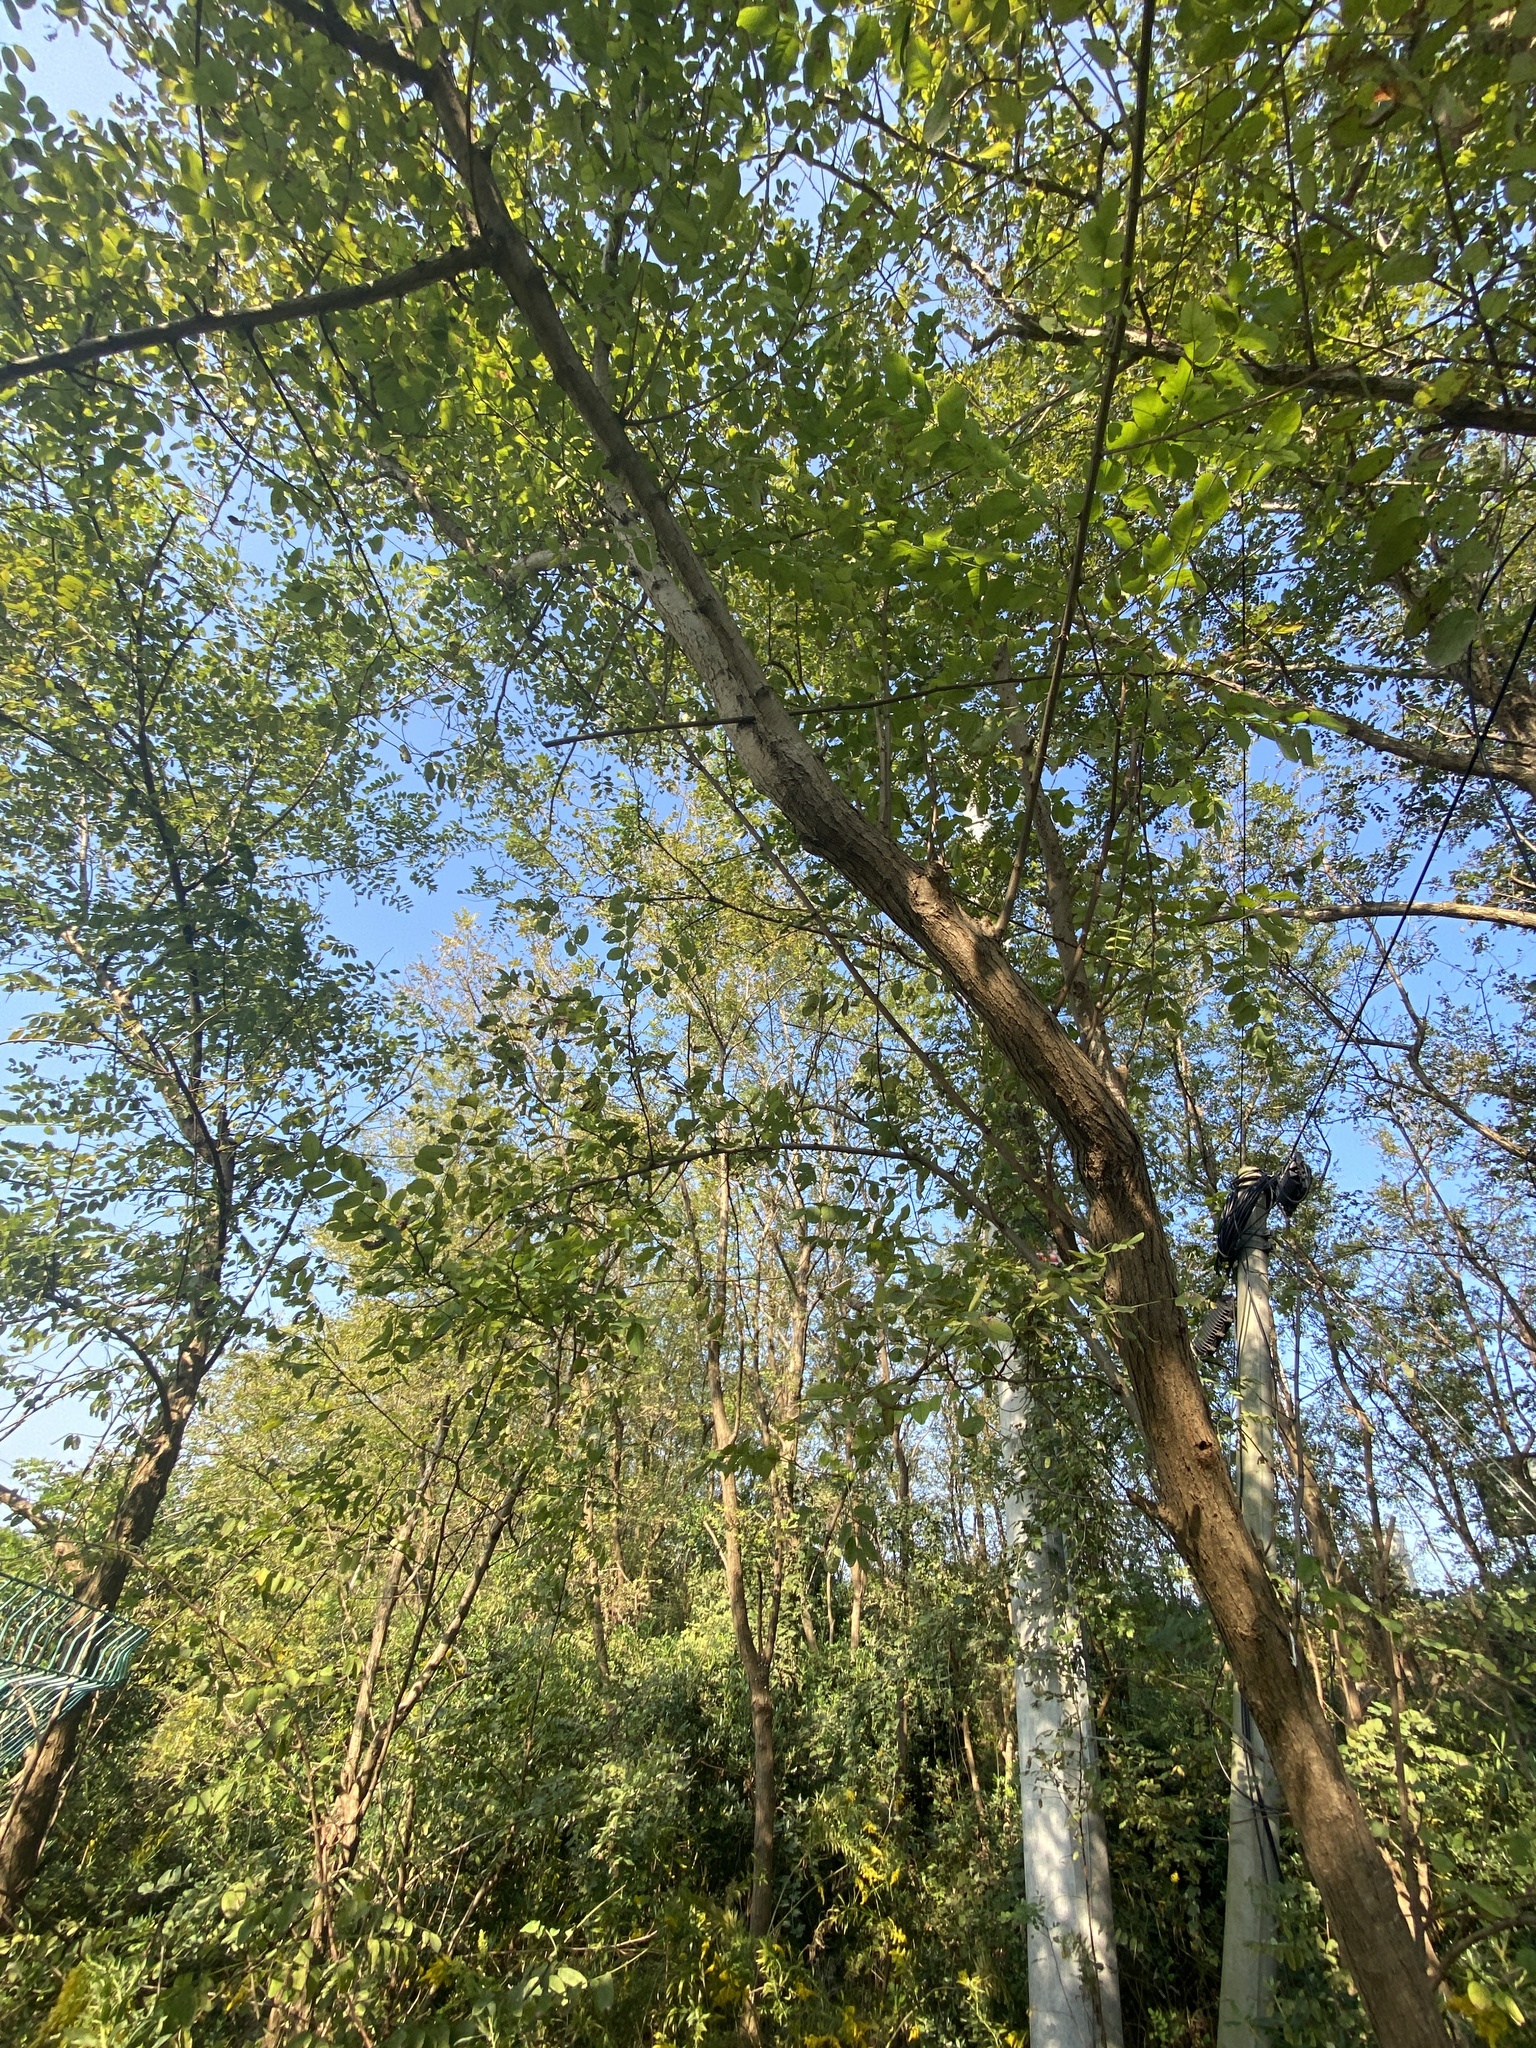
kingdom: Plantae
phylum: Tracheophyta
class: Magnoliopsida
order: Fabales
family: Fabaceae
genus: Robinia
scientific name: Robinia pseudoacacia
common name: Black locust
